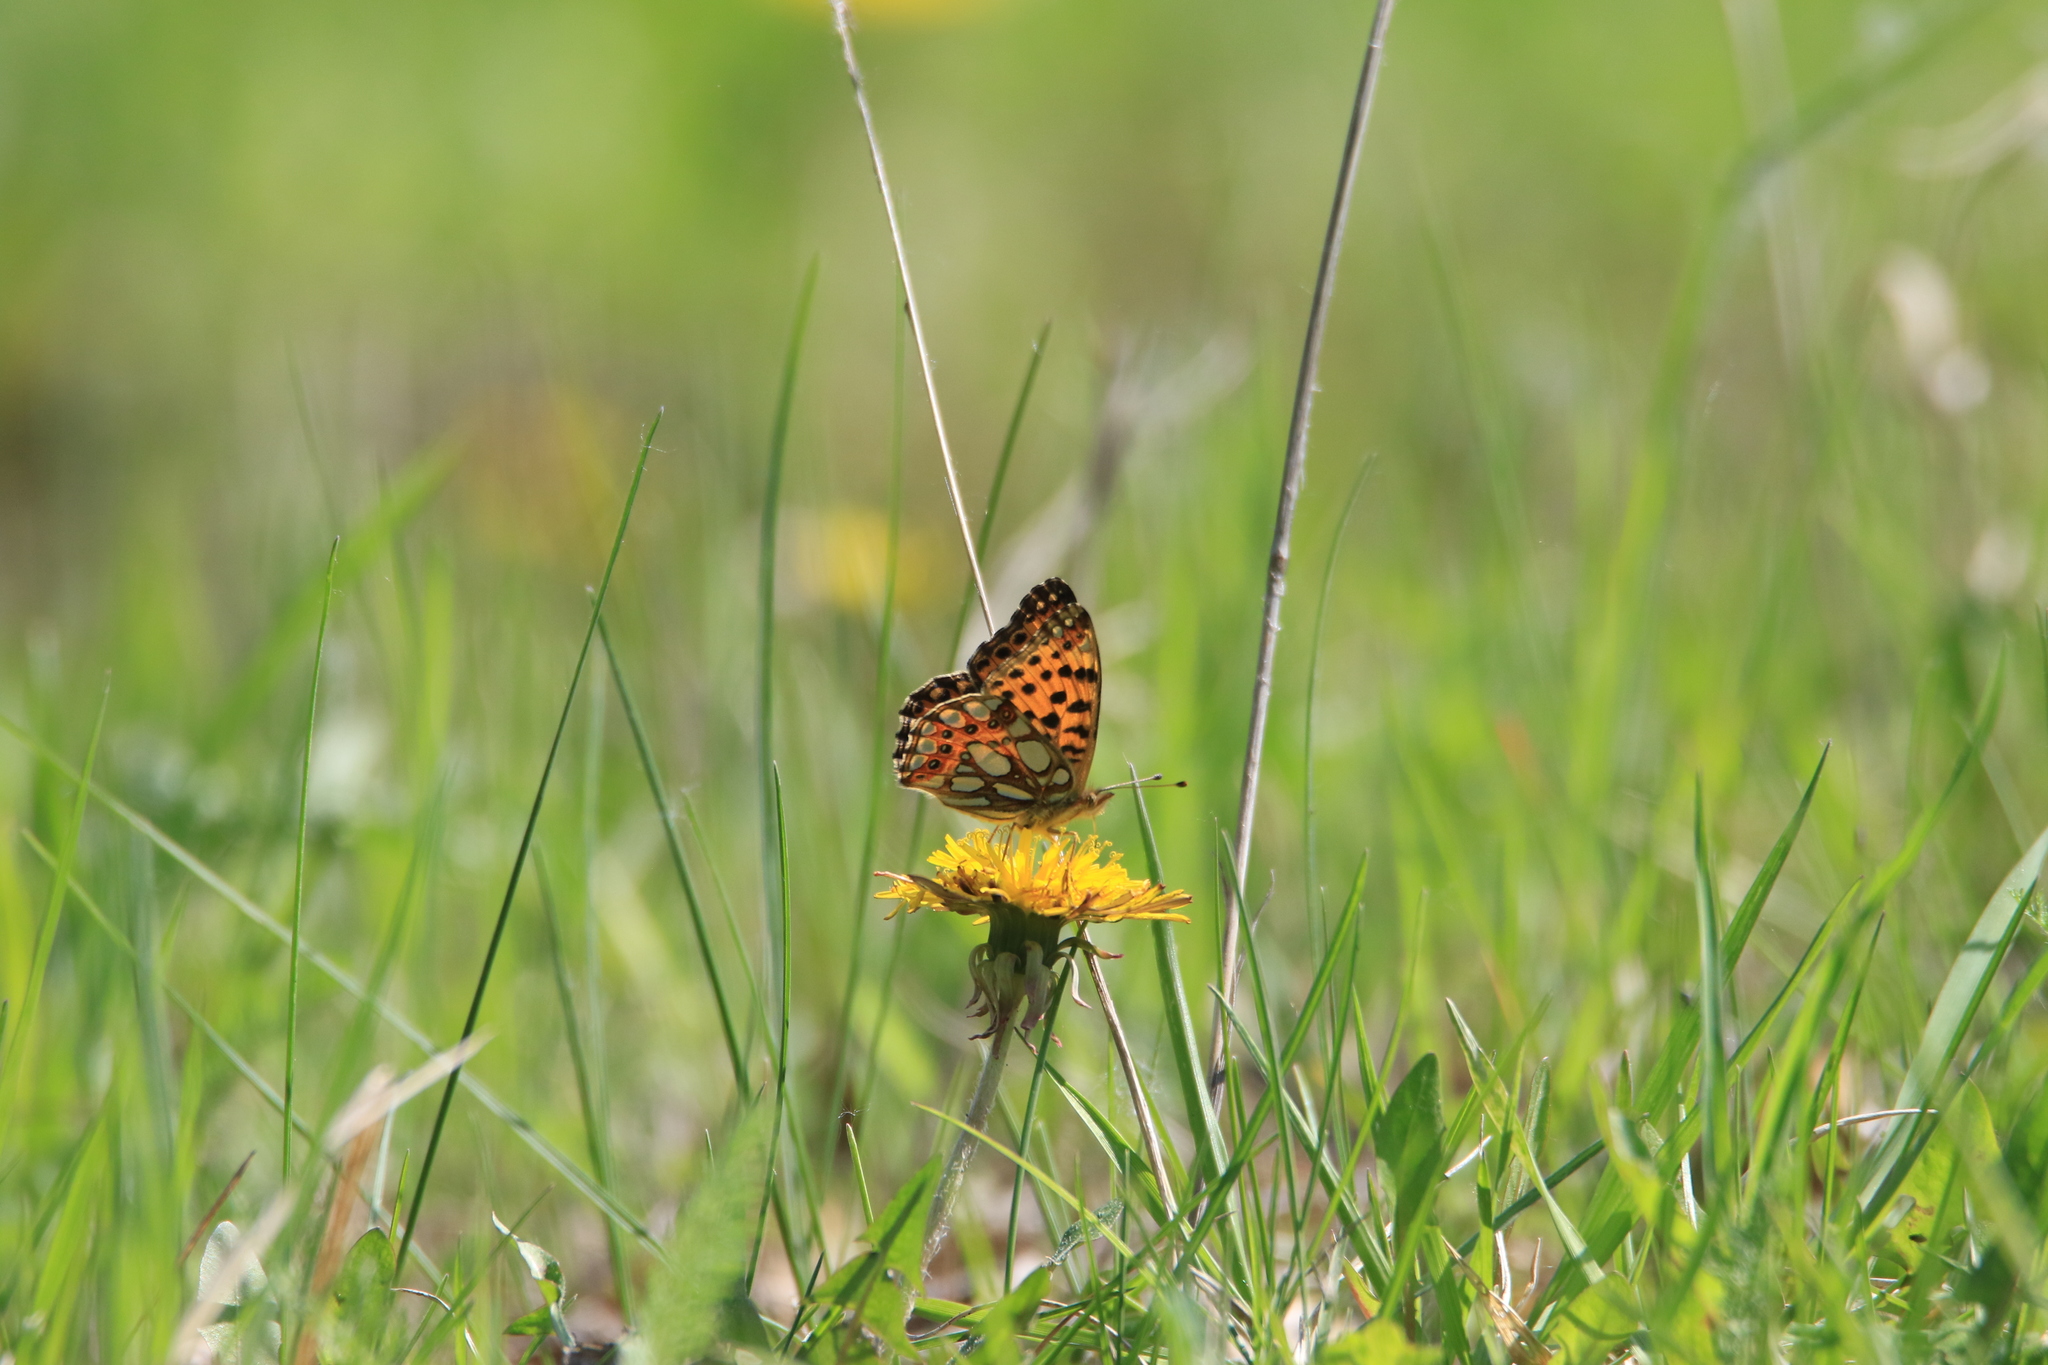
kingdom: Animalia
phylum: Arthropoda
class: Insecta
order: Lepidoptera
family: Nymphalidae
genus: Issoria
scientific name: Issoria lathonia
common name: Queen of spain fritillary
